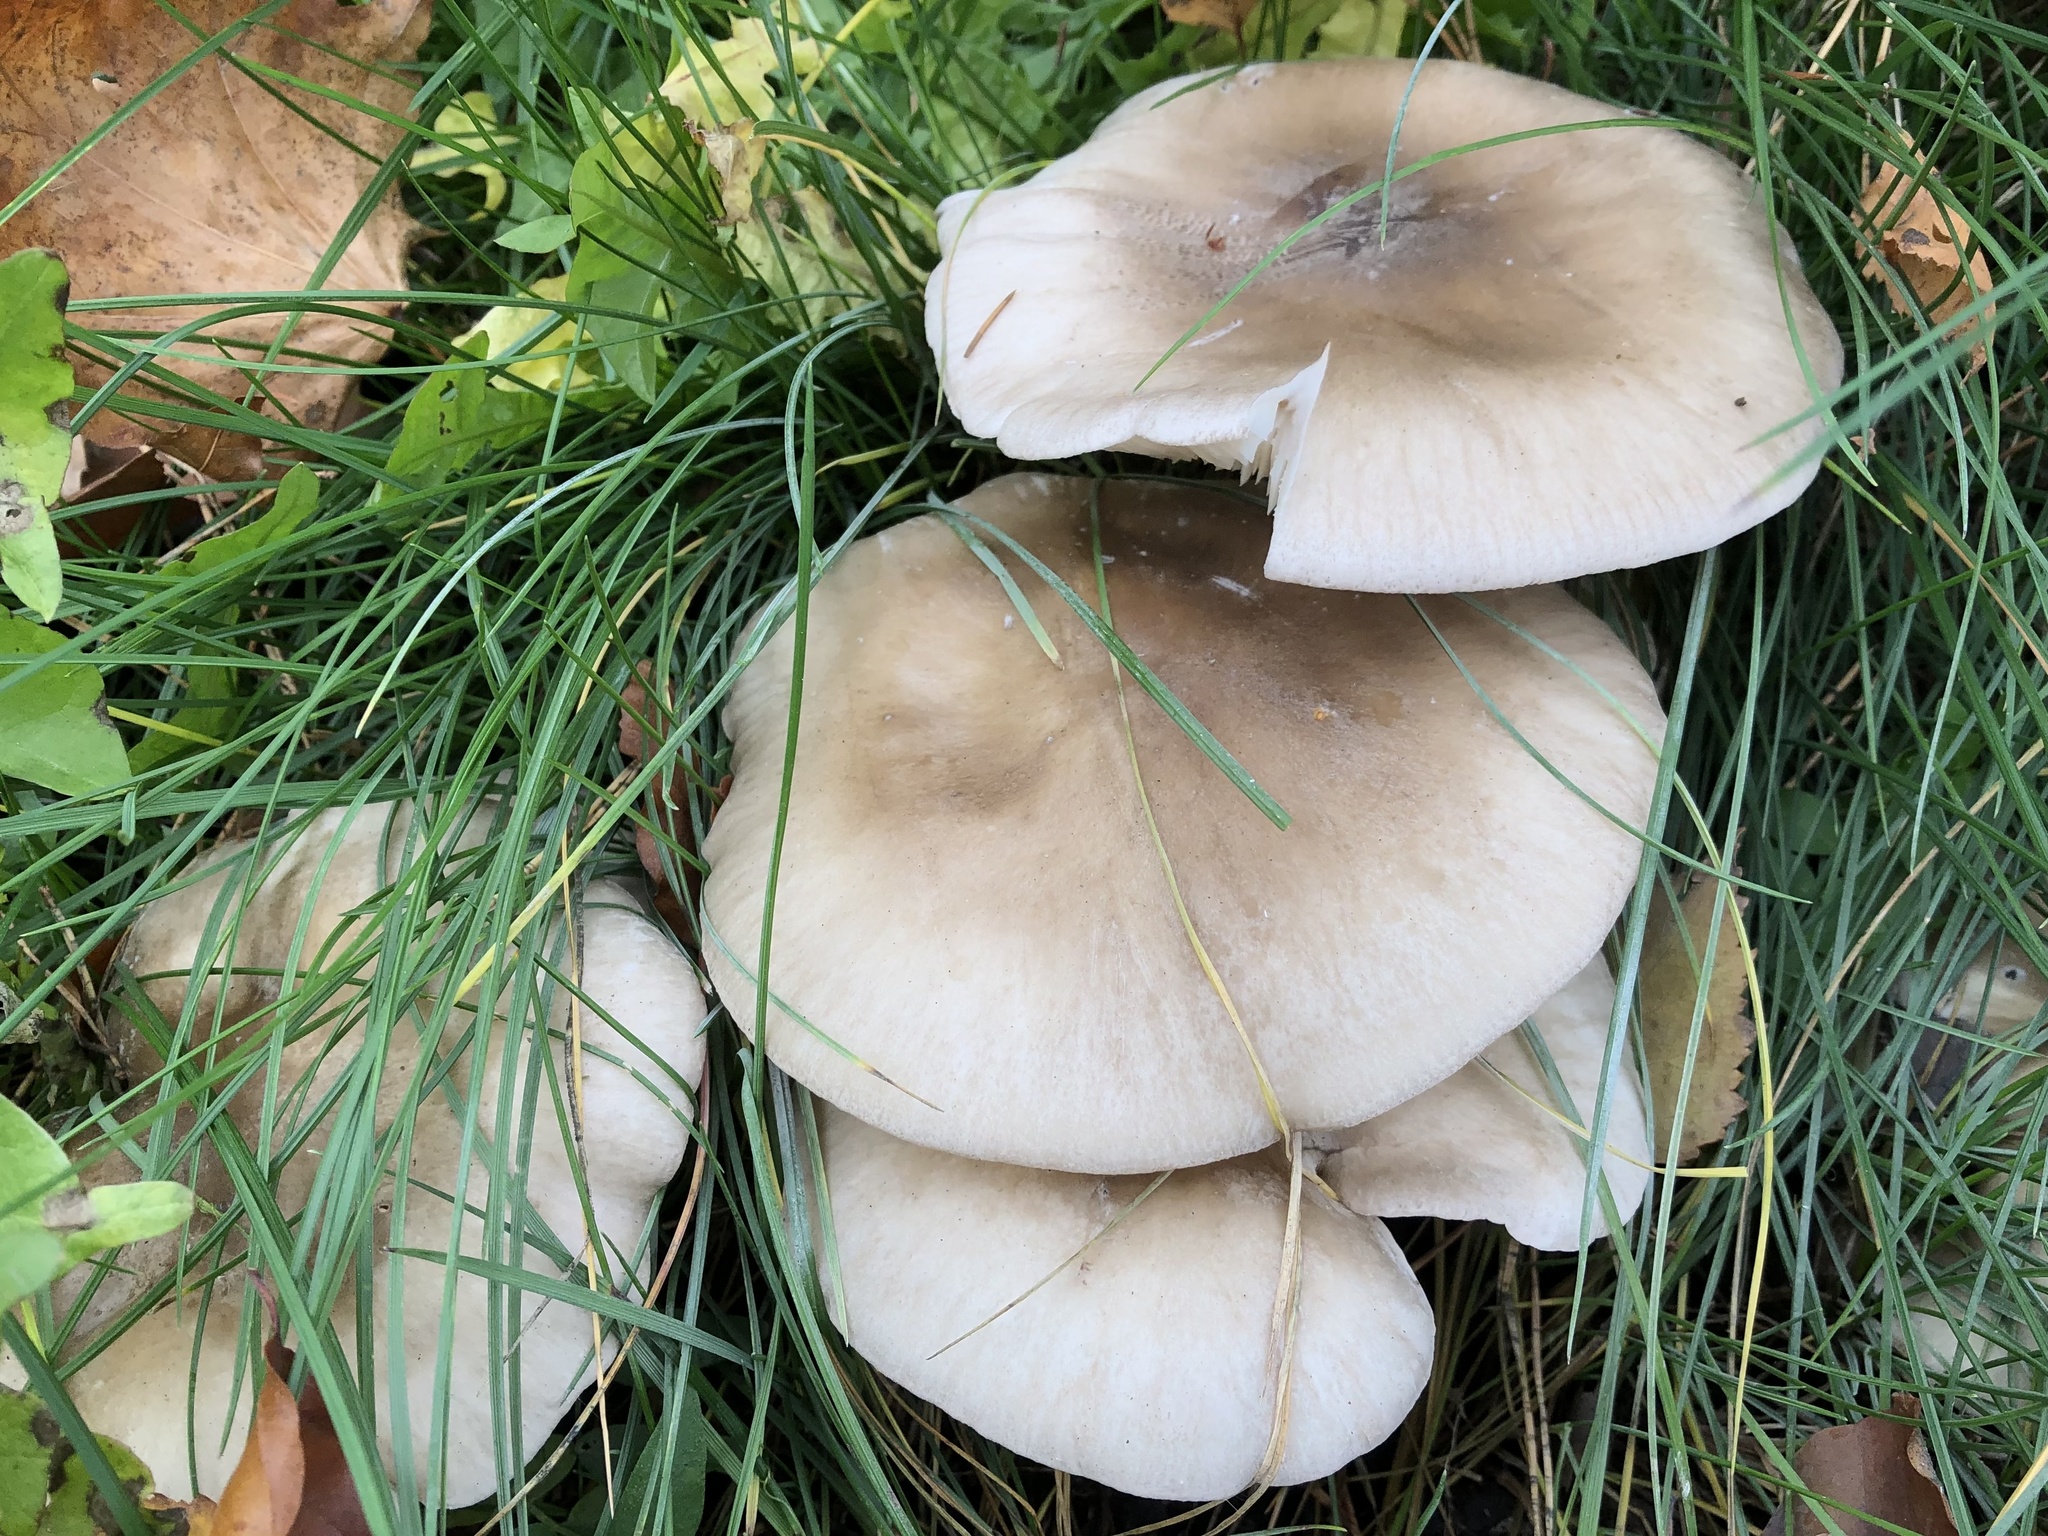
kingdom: Fungi
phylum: Basidiomycota
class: Agaricomycetes
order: Agaricales
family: Tricholomataceae
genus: Clitocybe
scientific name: Clitocybe nebularis
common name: Clouded agaric
